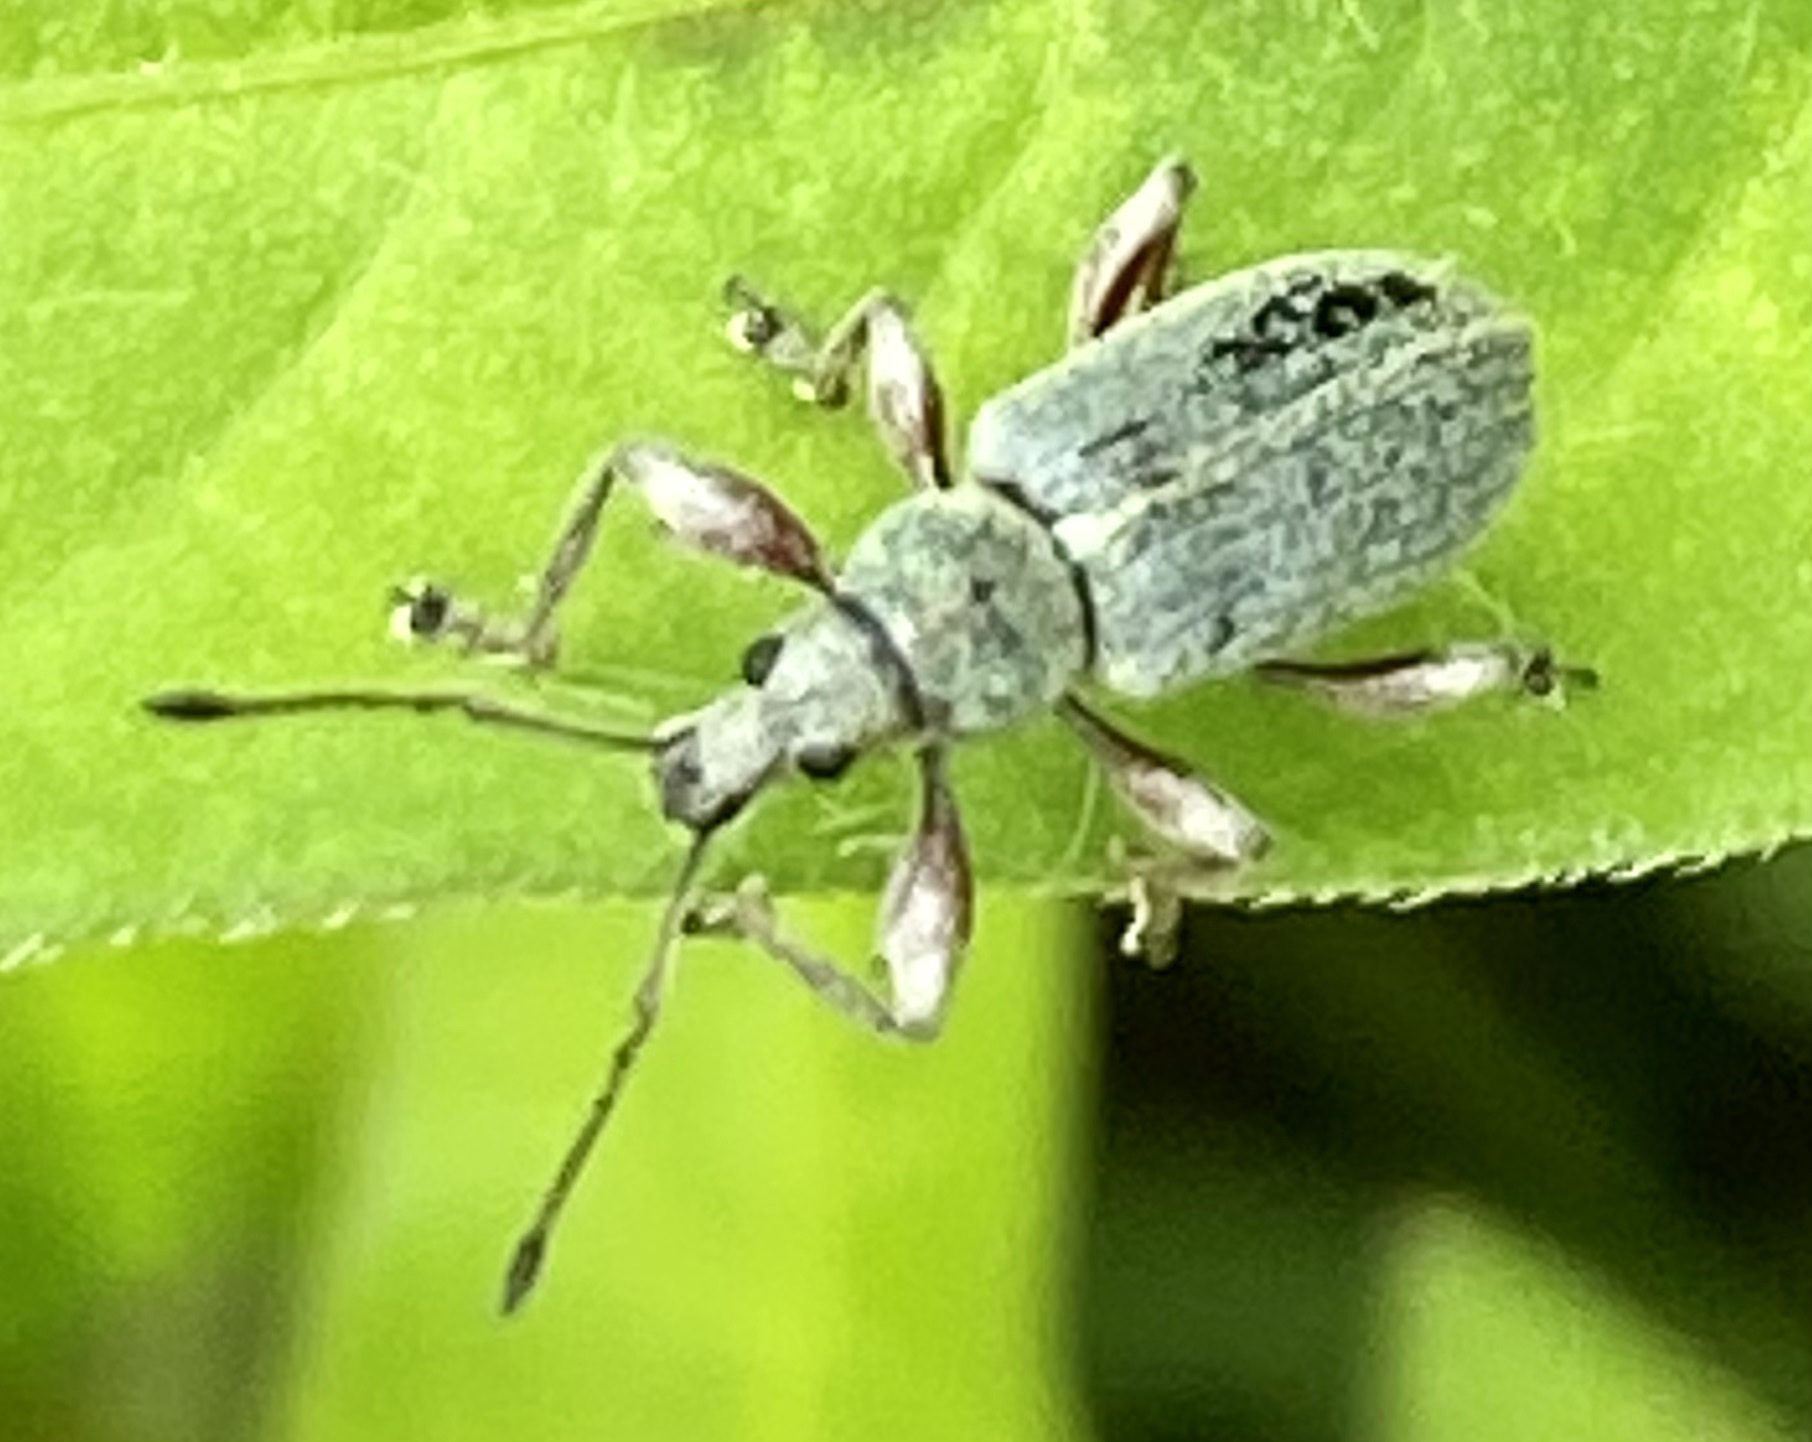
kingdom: Animalia
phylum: Arthropoda
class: Insecta
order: Coleoptera
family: Curculionidae
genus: Phyllobius
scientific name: Phyllobius pomaceus
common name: Green nettle weevil
